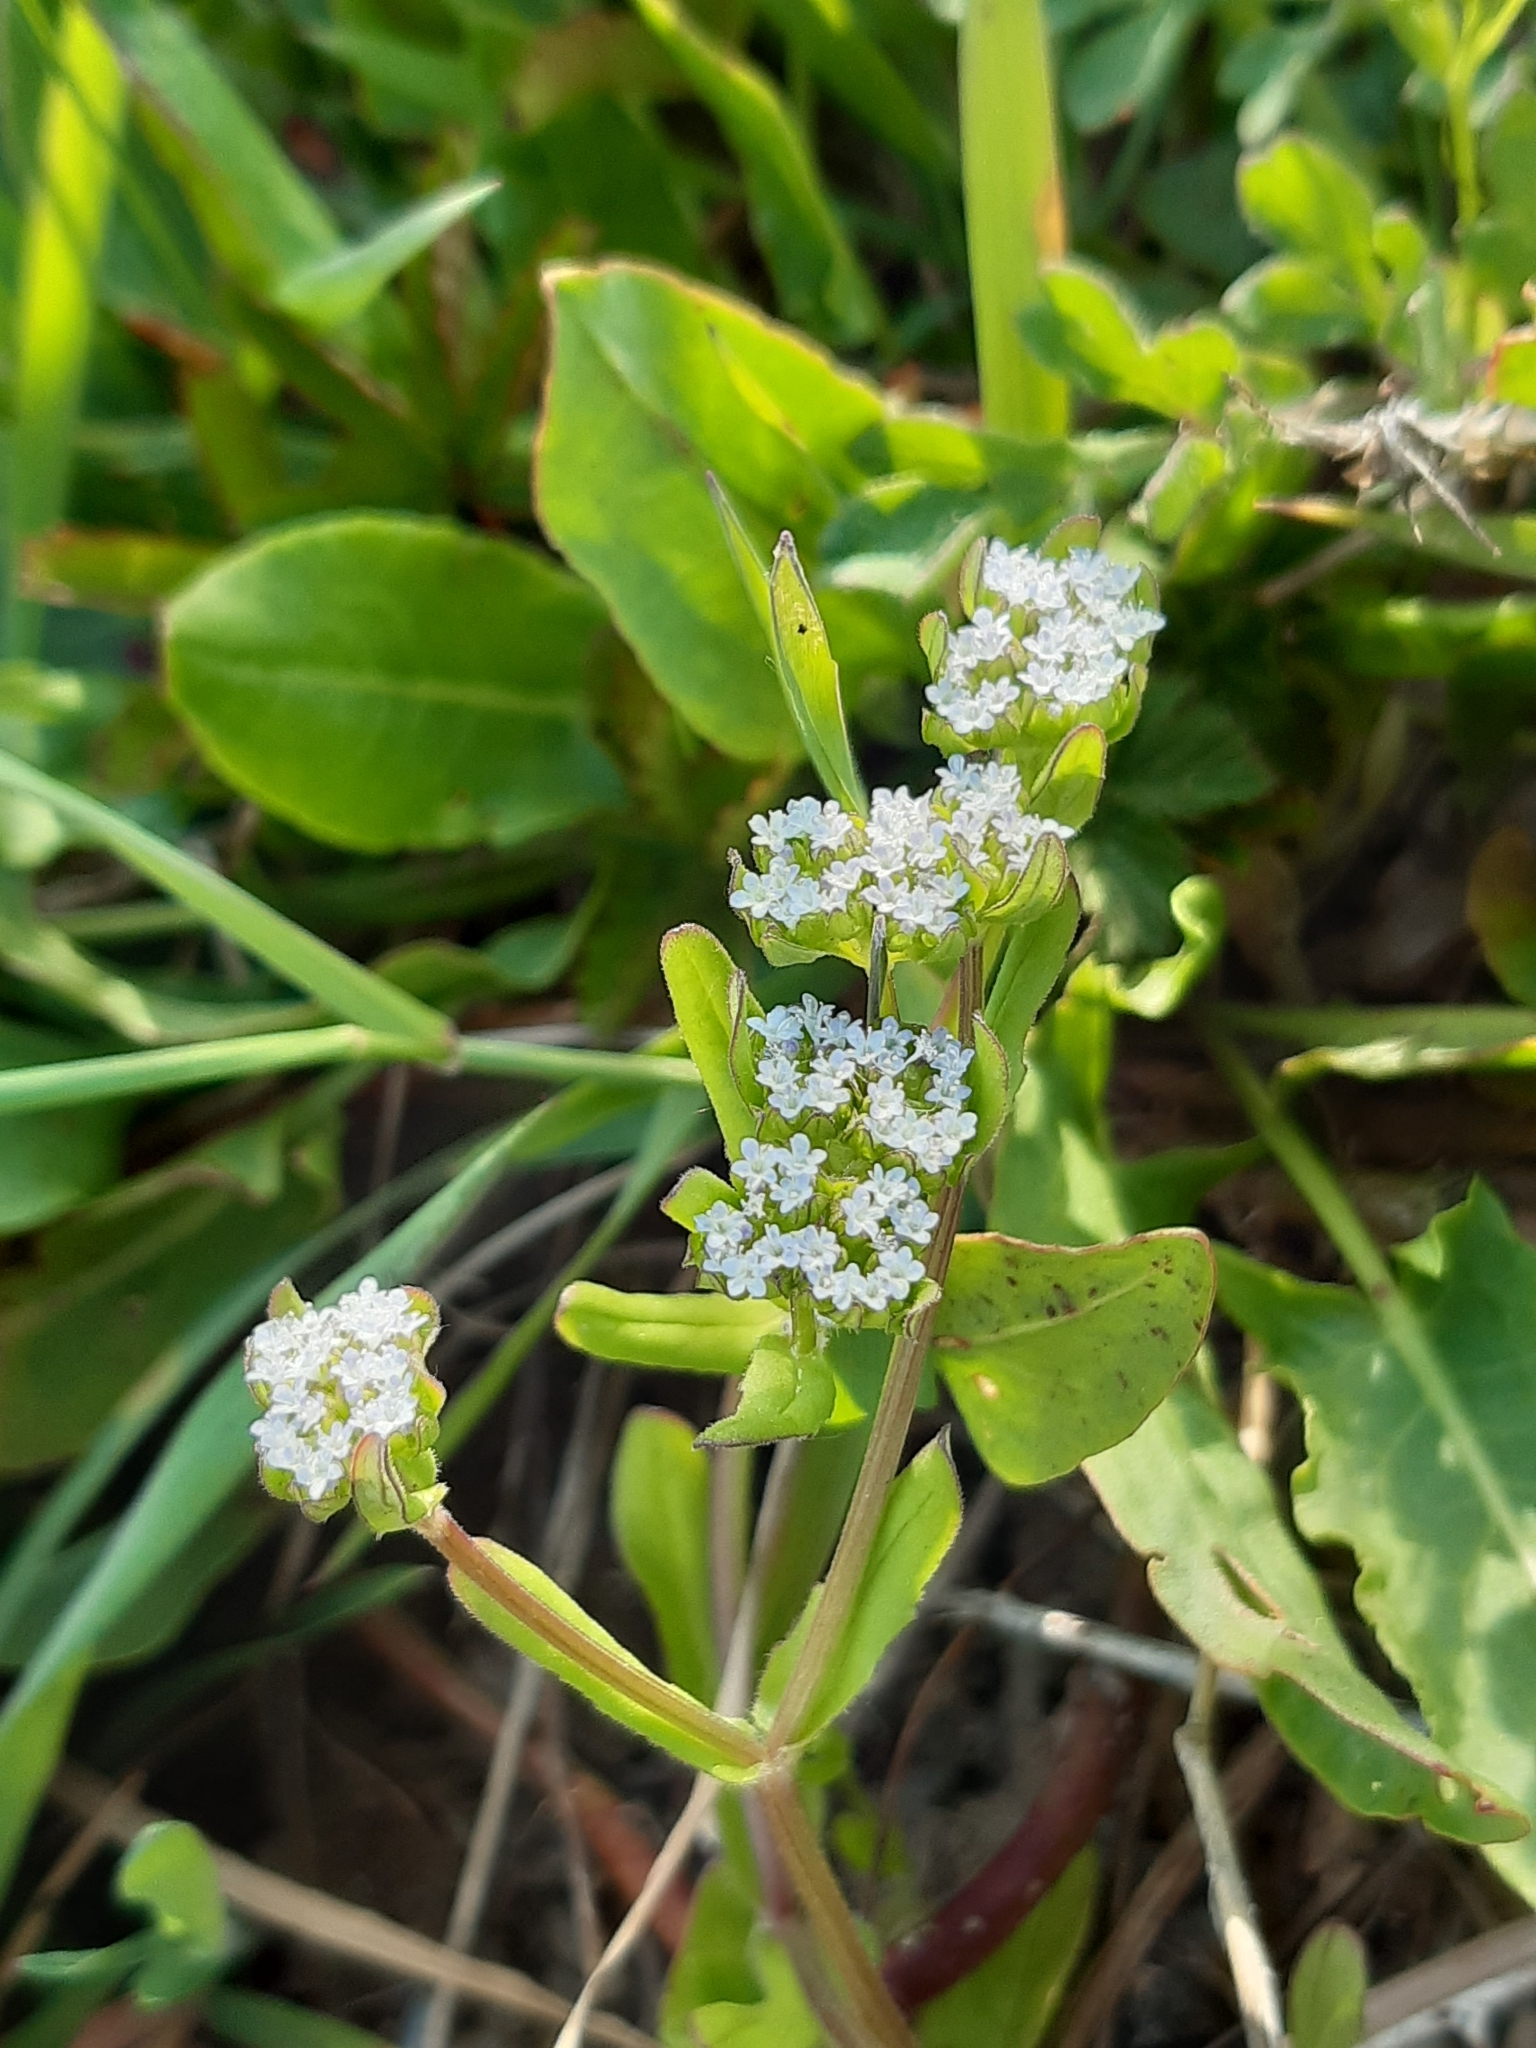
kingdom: Plantae
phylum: Tracheophyta
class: Magnoliopsida
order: Dipsacales
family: Caprifoliaceae
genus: Valerianella
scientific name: Valerianella locusta
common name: Common cornsalad
